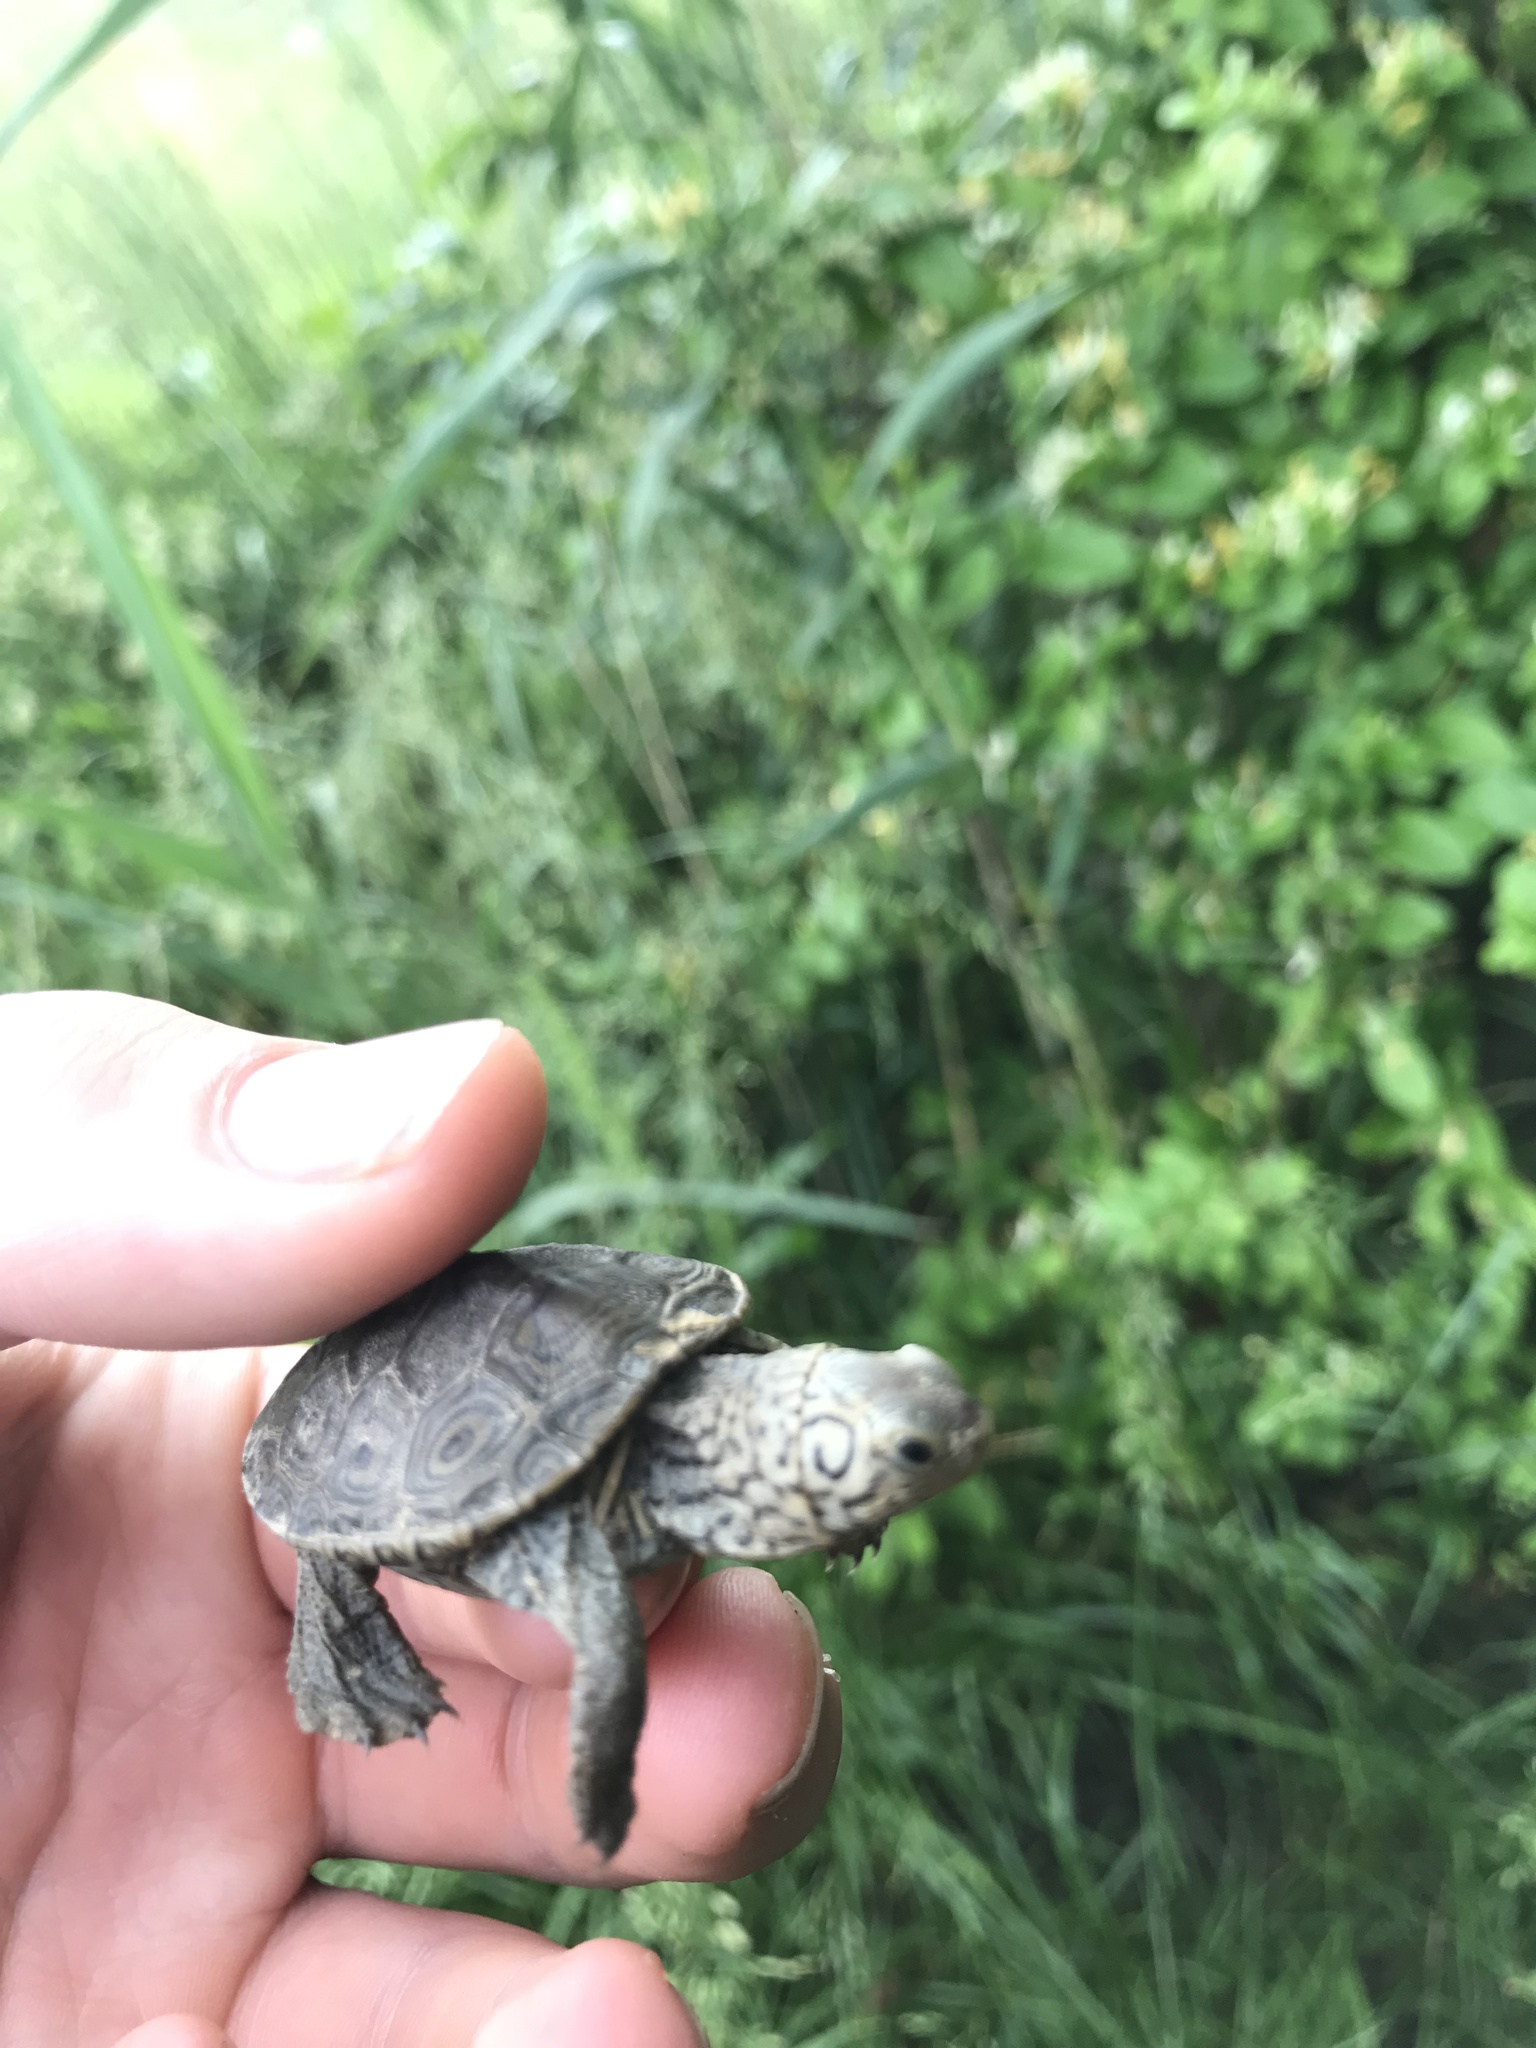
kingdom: Animalia
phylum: Chordata
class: Testudines
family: Emydidae
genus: Malaclemys
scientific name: Malaclemys terrapin
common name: Diamondback terrapin
